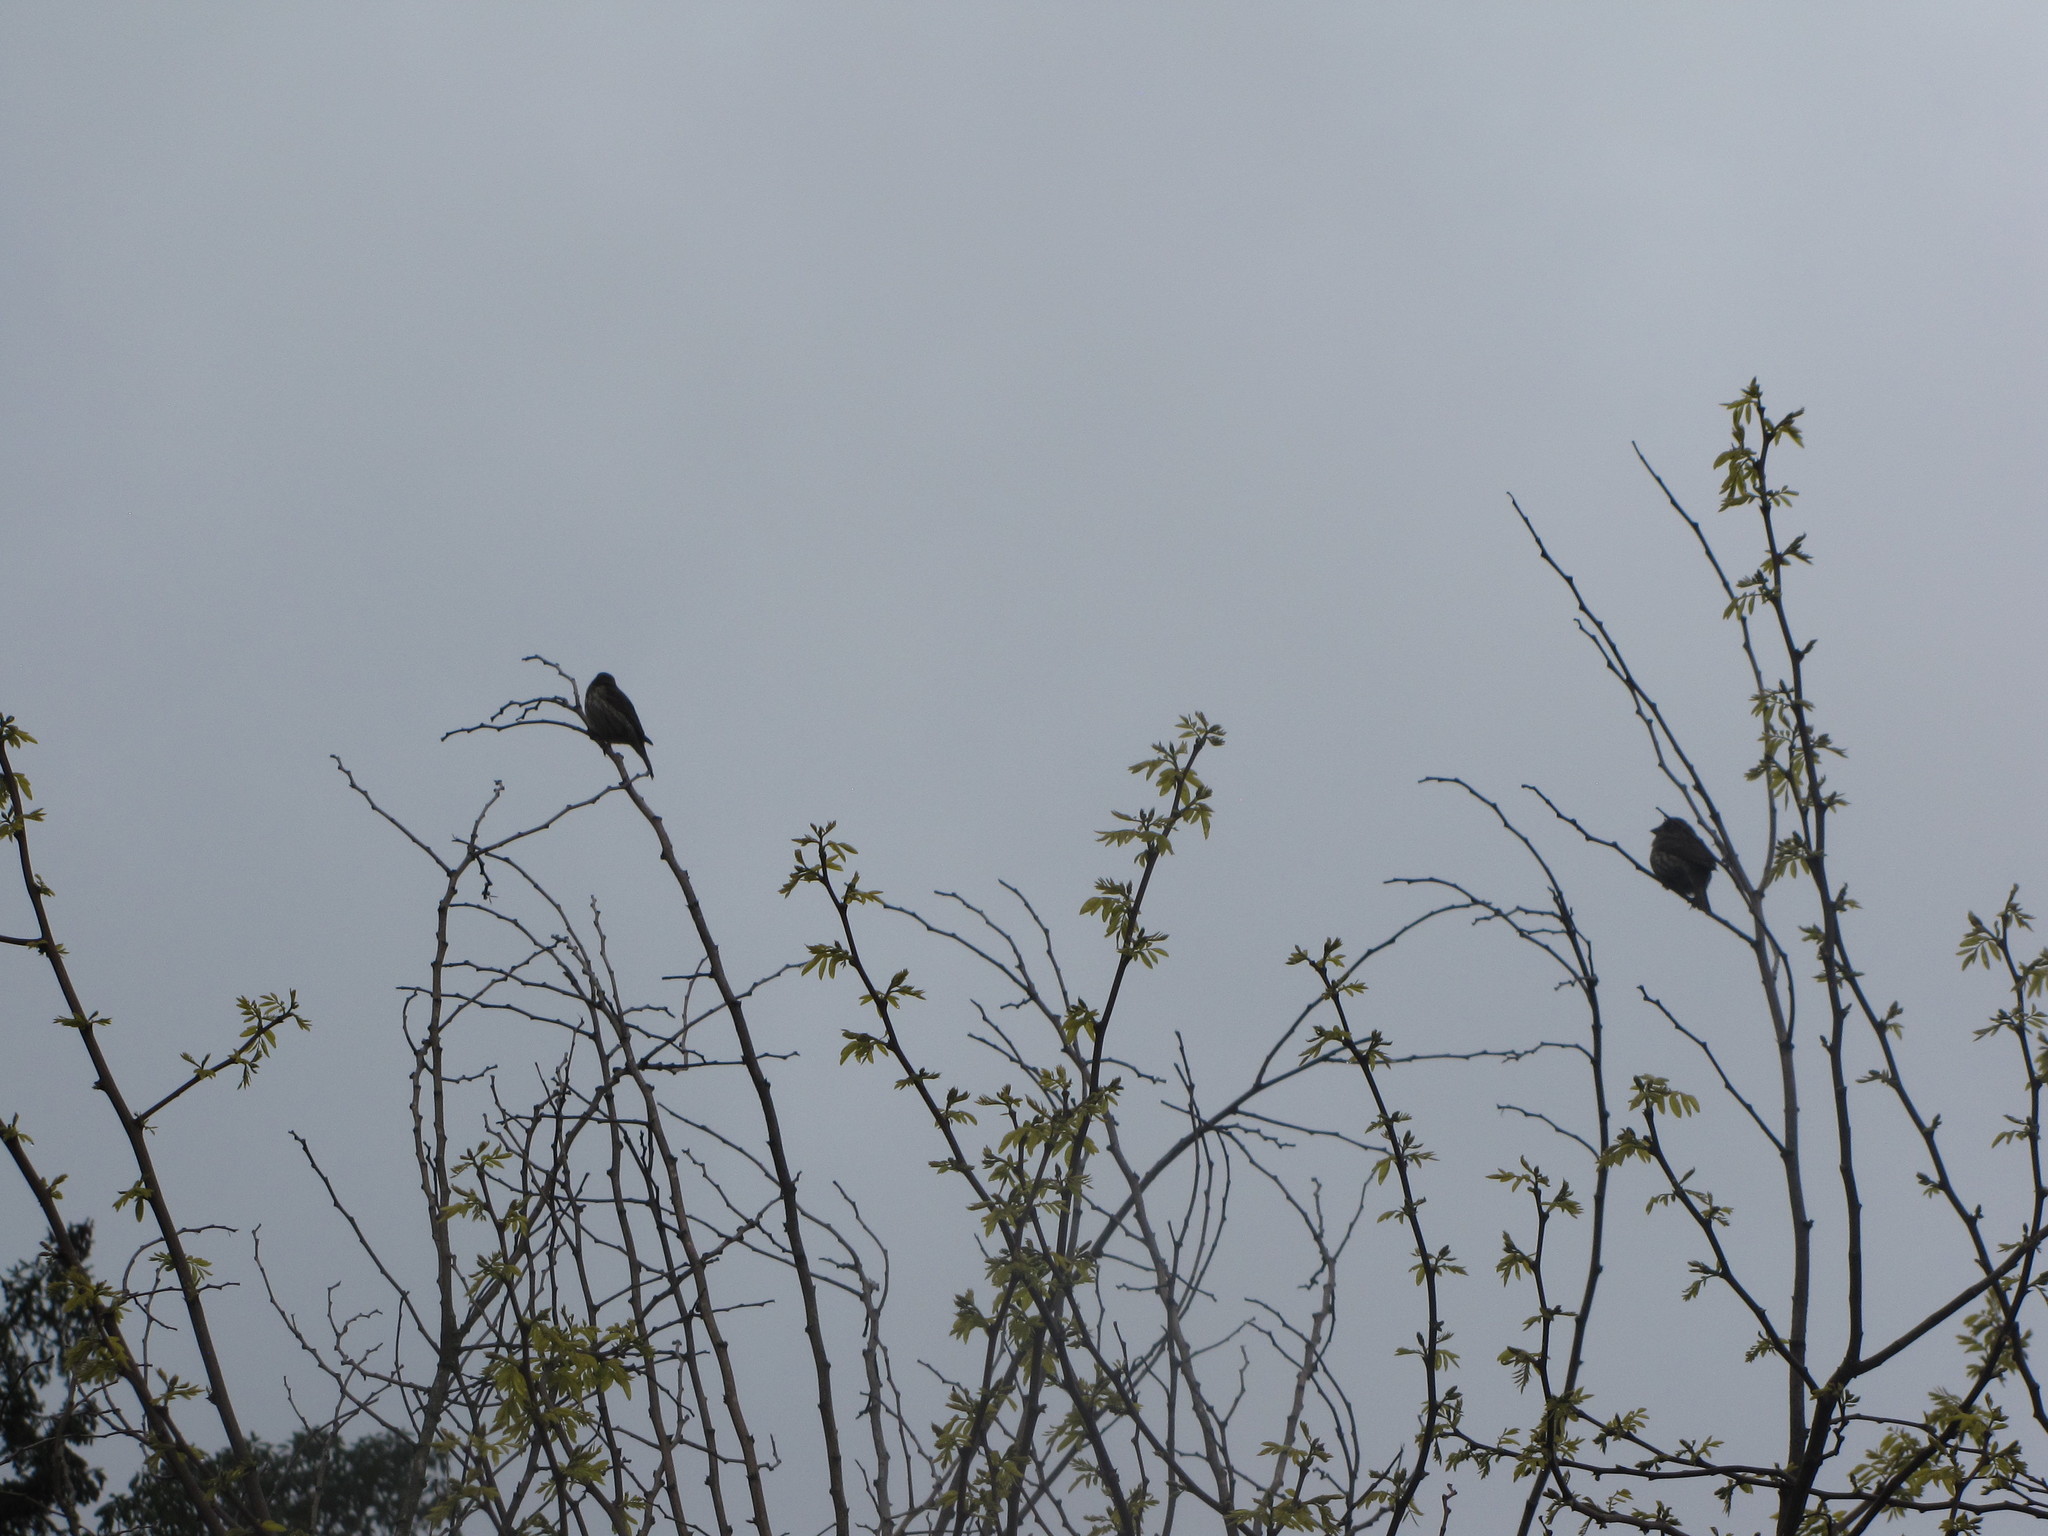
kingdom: Animalia
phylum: Chordata
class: Aves
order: Passeriformes
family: Fringillidae
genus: Haemorhous
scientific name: Haemorhous purpureus
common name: Purple finch
